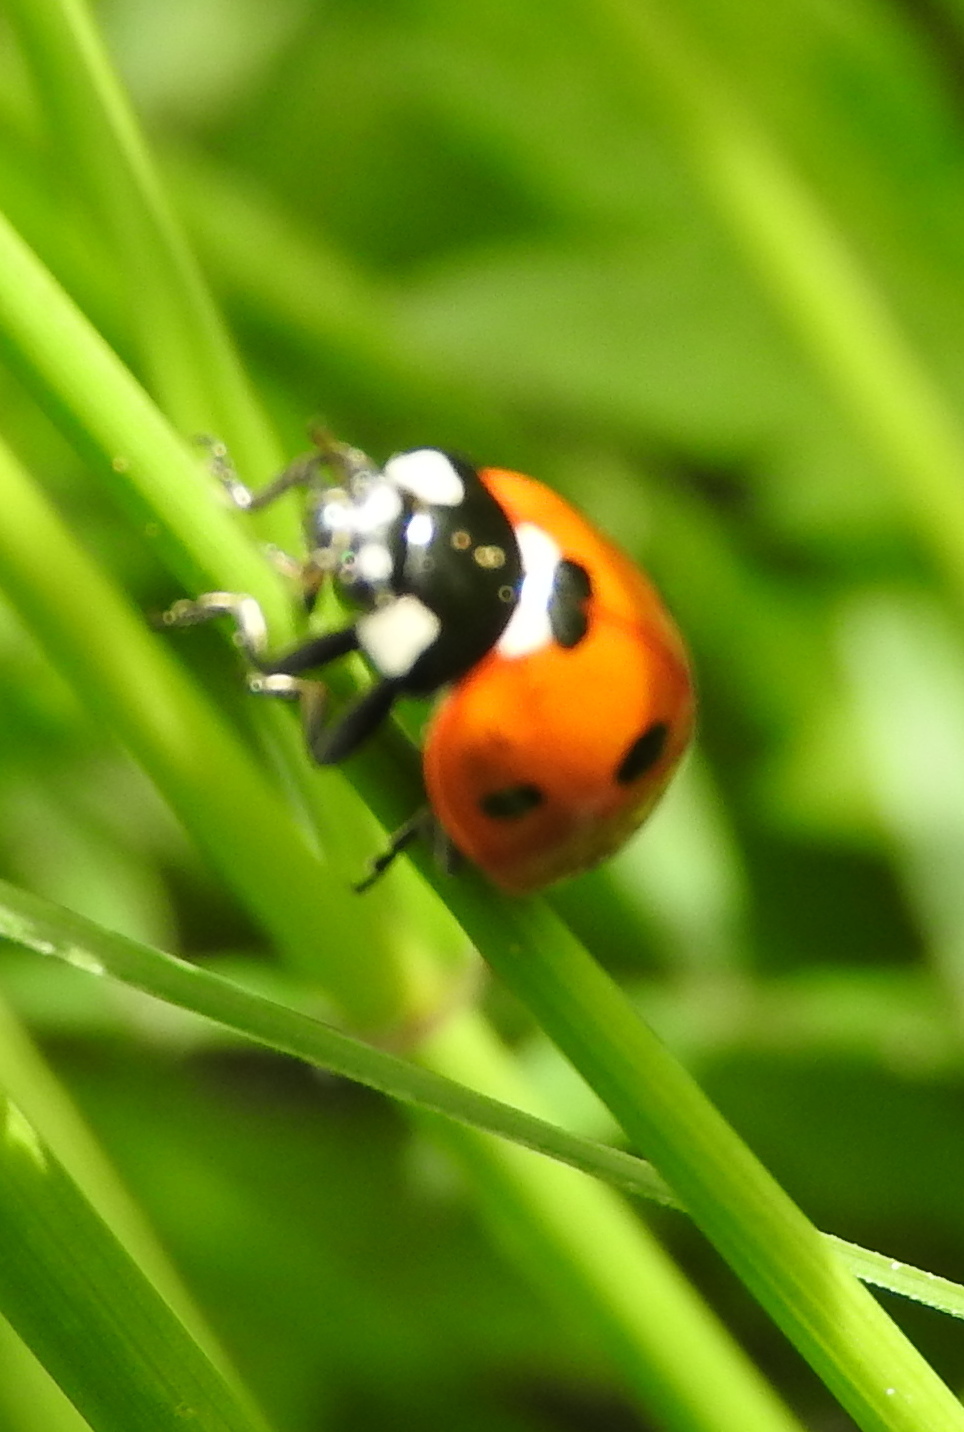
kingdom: Animalia
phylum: Arthropoda
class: Insecta
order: Coleoptera
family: Coccinellidae
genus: Coccinella
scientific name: Coccinella septempunctata
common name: Sevenspotted lady beetle
